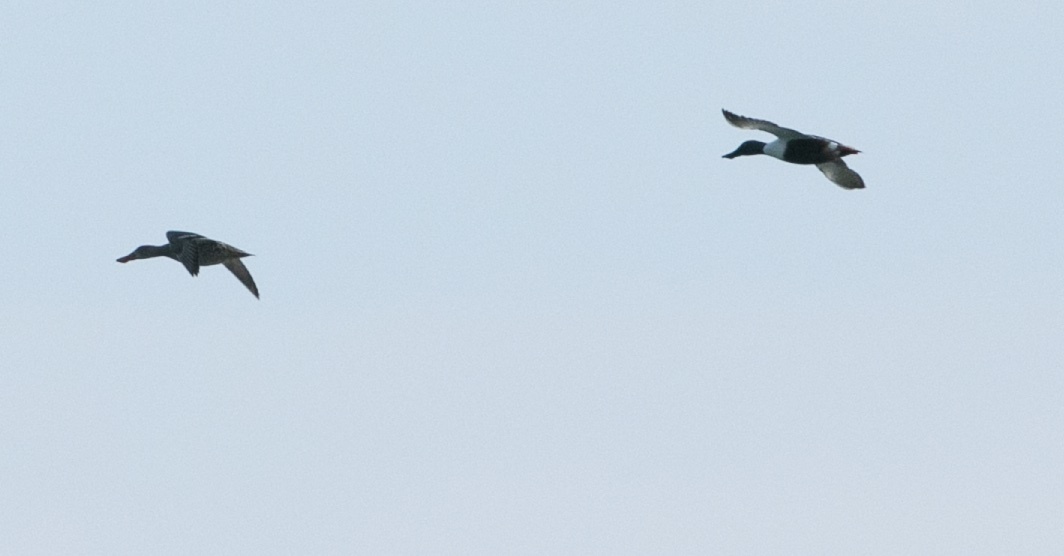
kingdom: Animalia
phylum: Chordata
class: Aves
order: Anseriformes
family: Anatidae
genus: Spatula
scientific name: Spatula clypeata
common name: Northern shoveler
